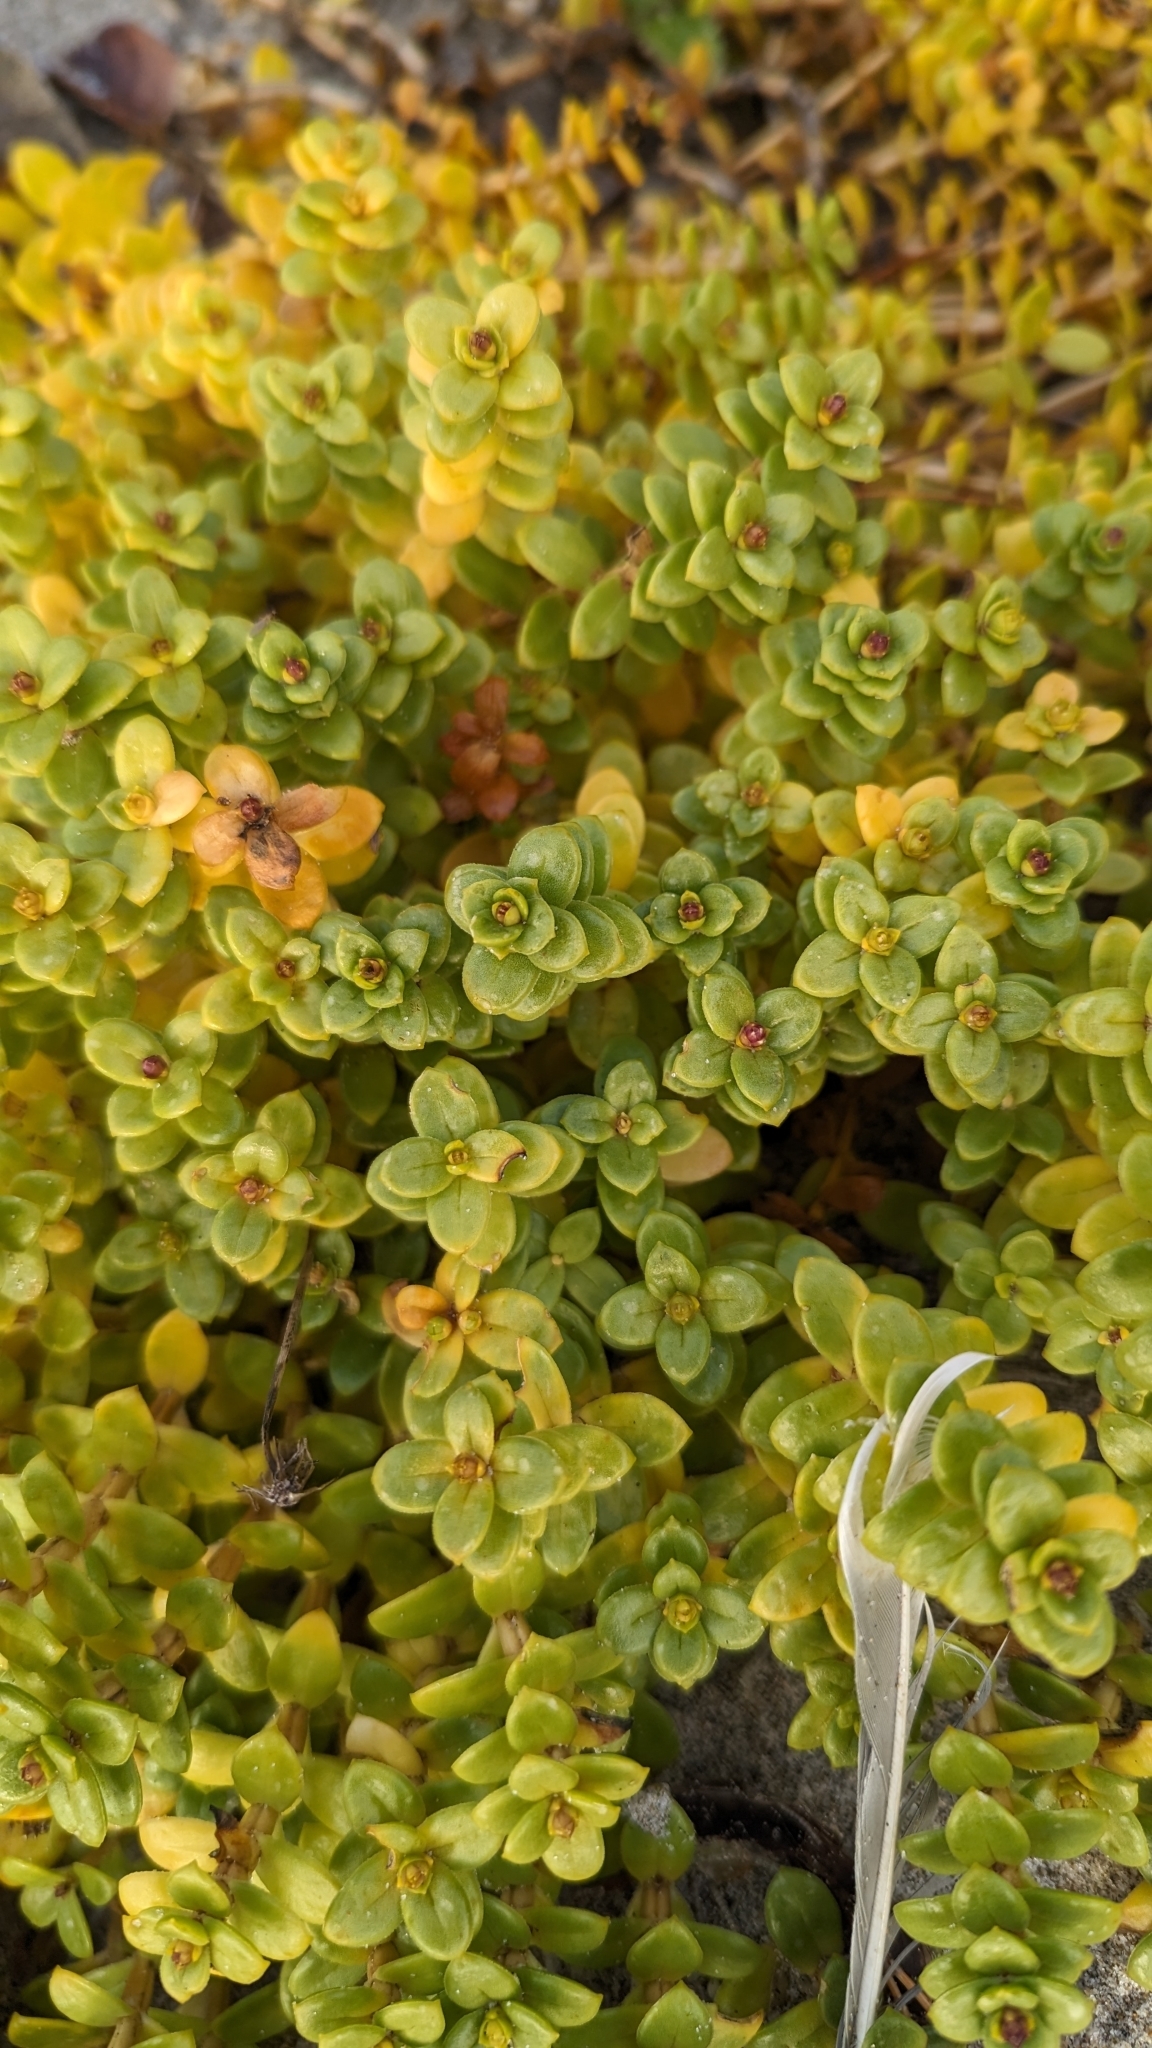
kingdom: Plantae
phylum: Tracheophyta
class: Magnoliopsida
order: Caryophyllales
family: Caryophyllaceae
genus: Honckenya
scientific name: Honckenya peploides
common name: Sea sandwort
